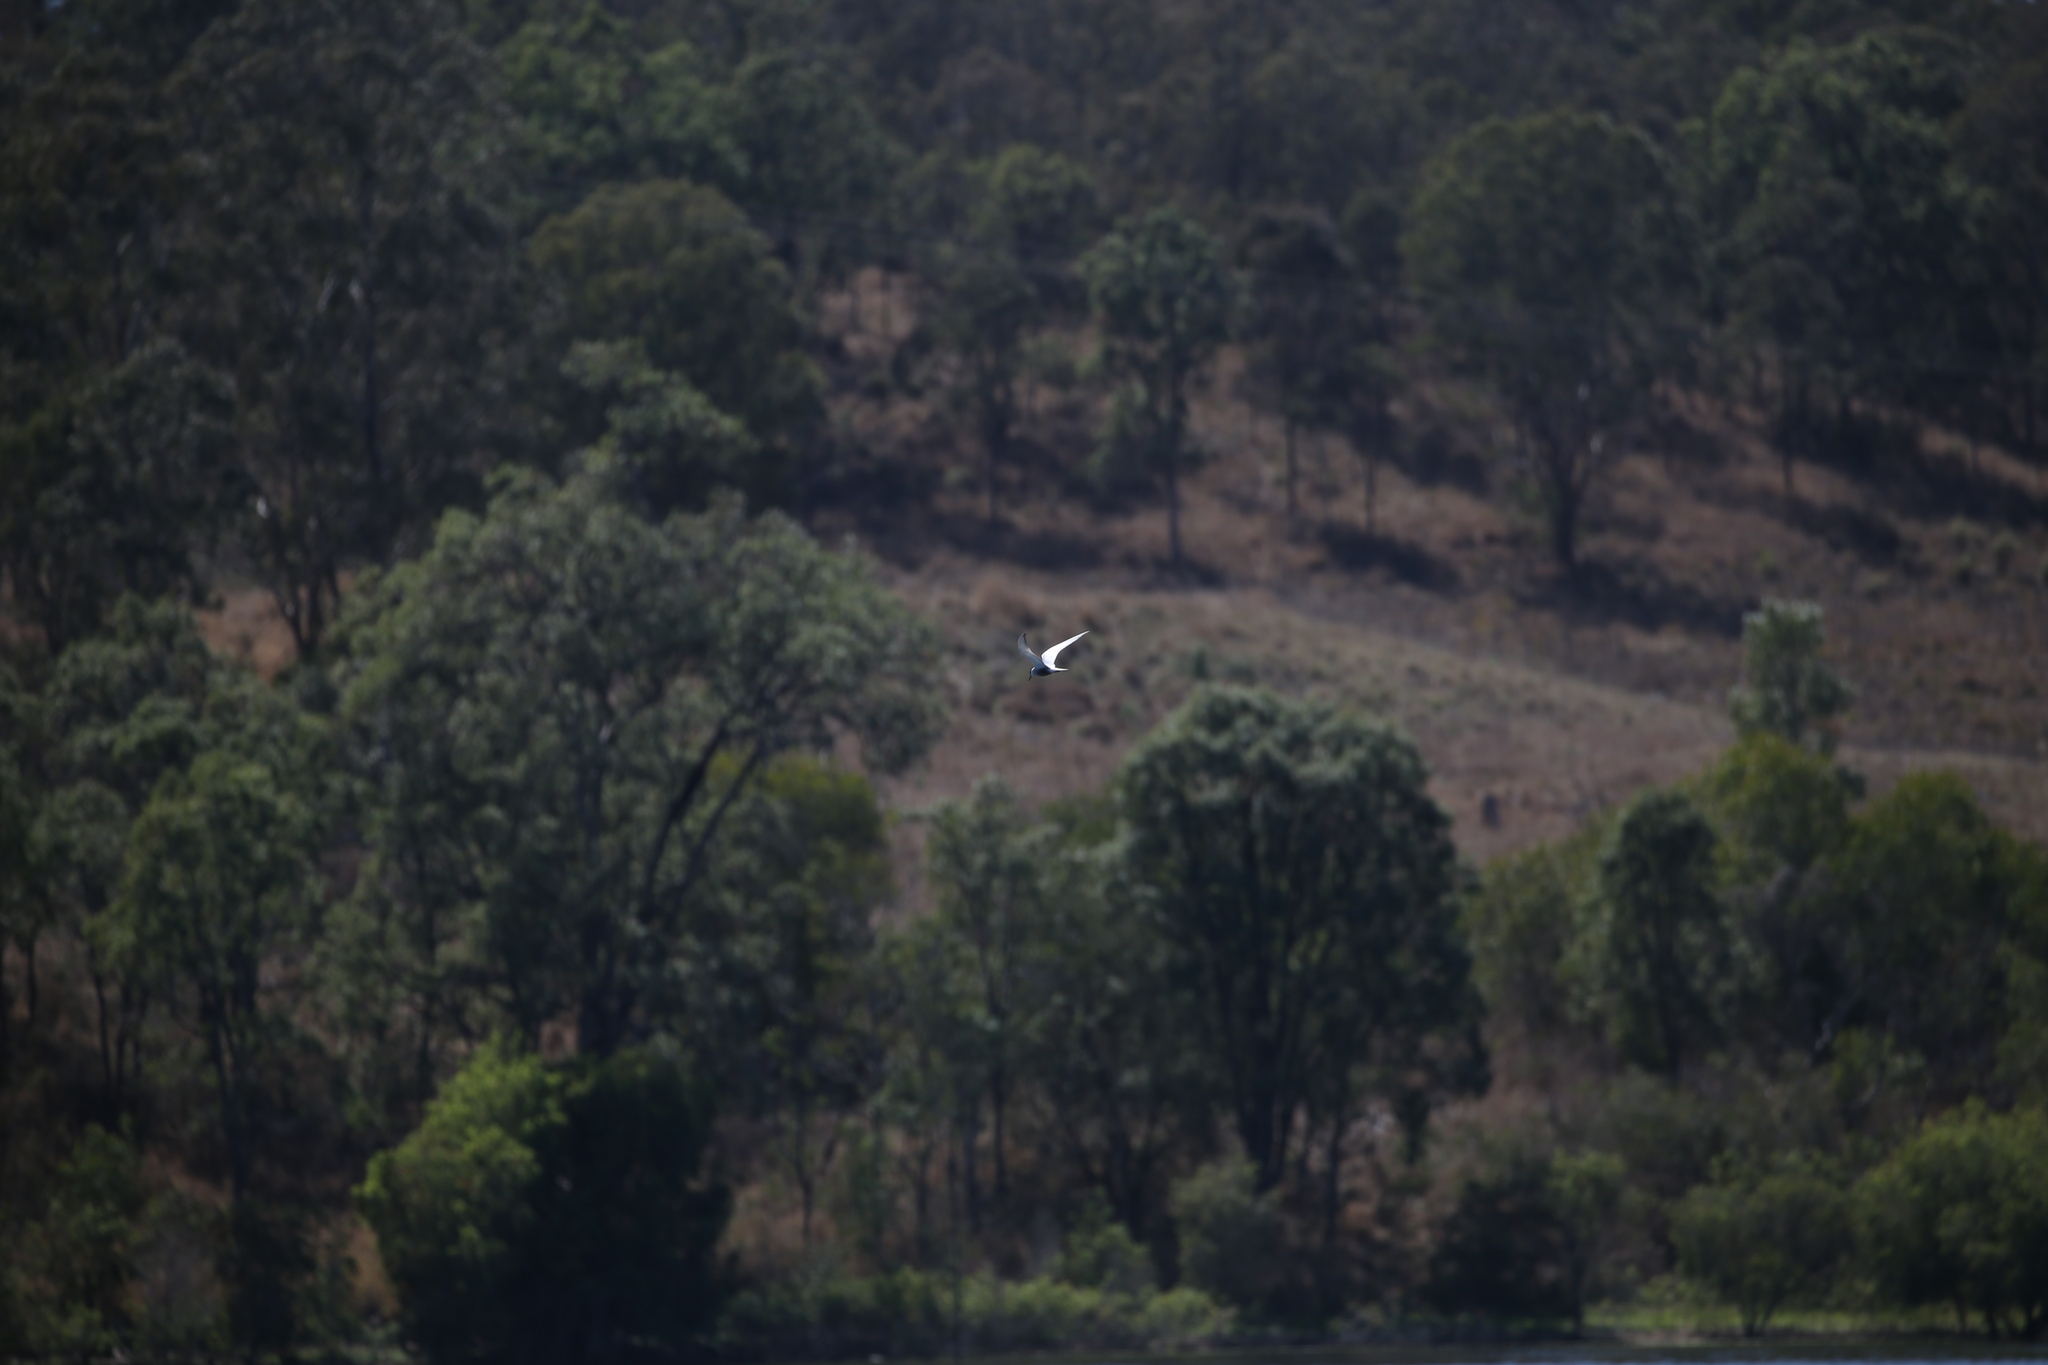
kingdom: Animalia
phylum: Chordata
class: Aves
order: Charadriiformes
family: Laridae
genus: Chlidonias
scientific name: Chlidonias hybrida
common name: Whiskered tern
